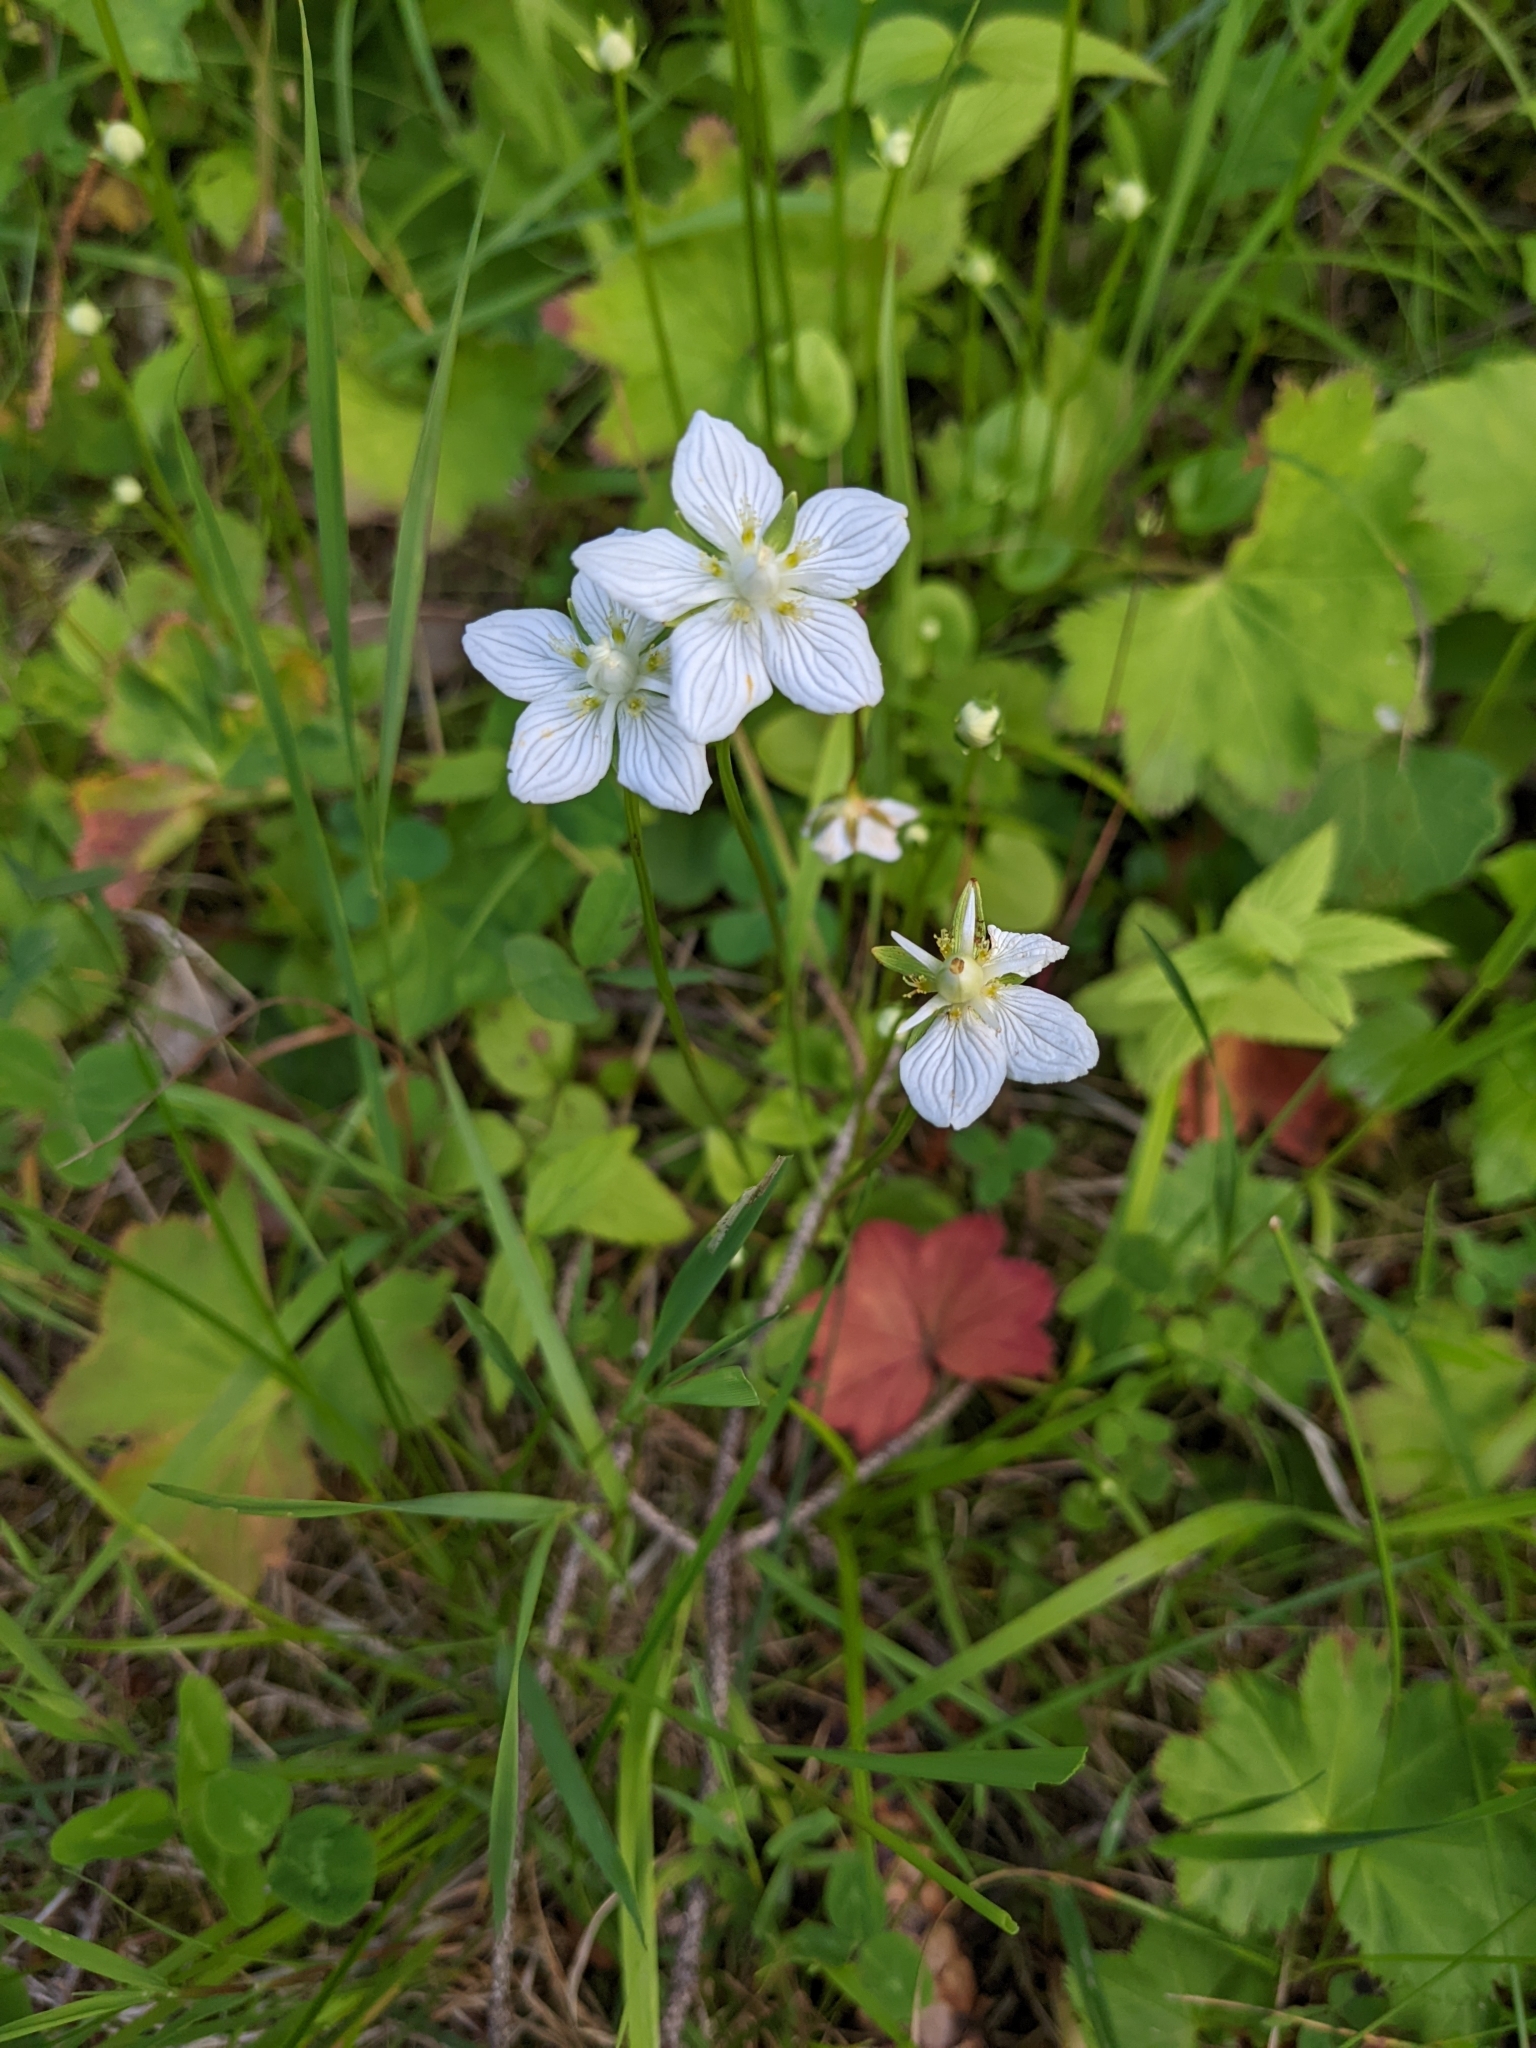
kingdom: Plantae
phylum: Tracheophyta
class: Magnoliopsida
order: Celastrales
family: Parnassiaceae
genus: Parnassia
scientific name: Parnassia palustris
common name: Grass-of-parnassus
